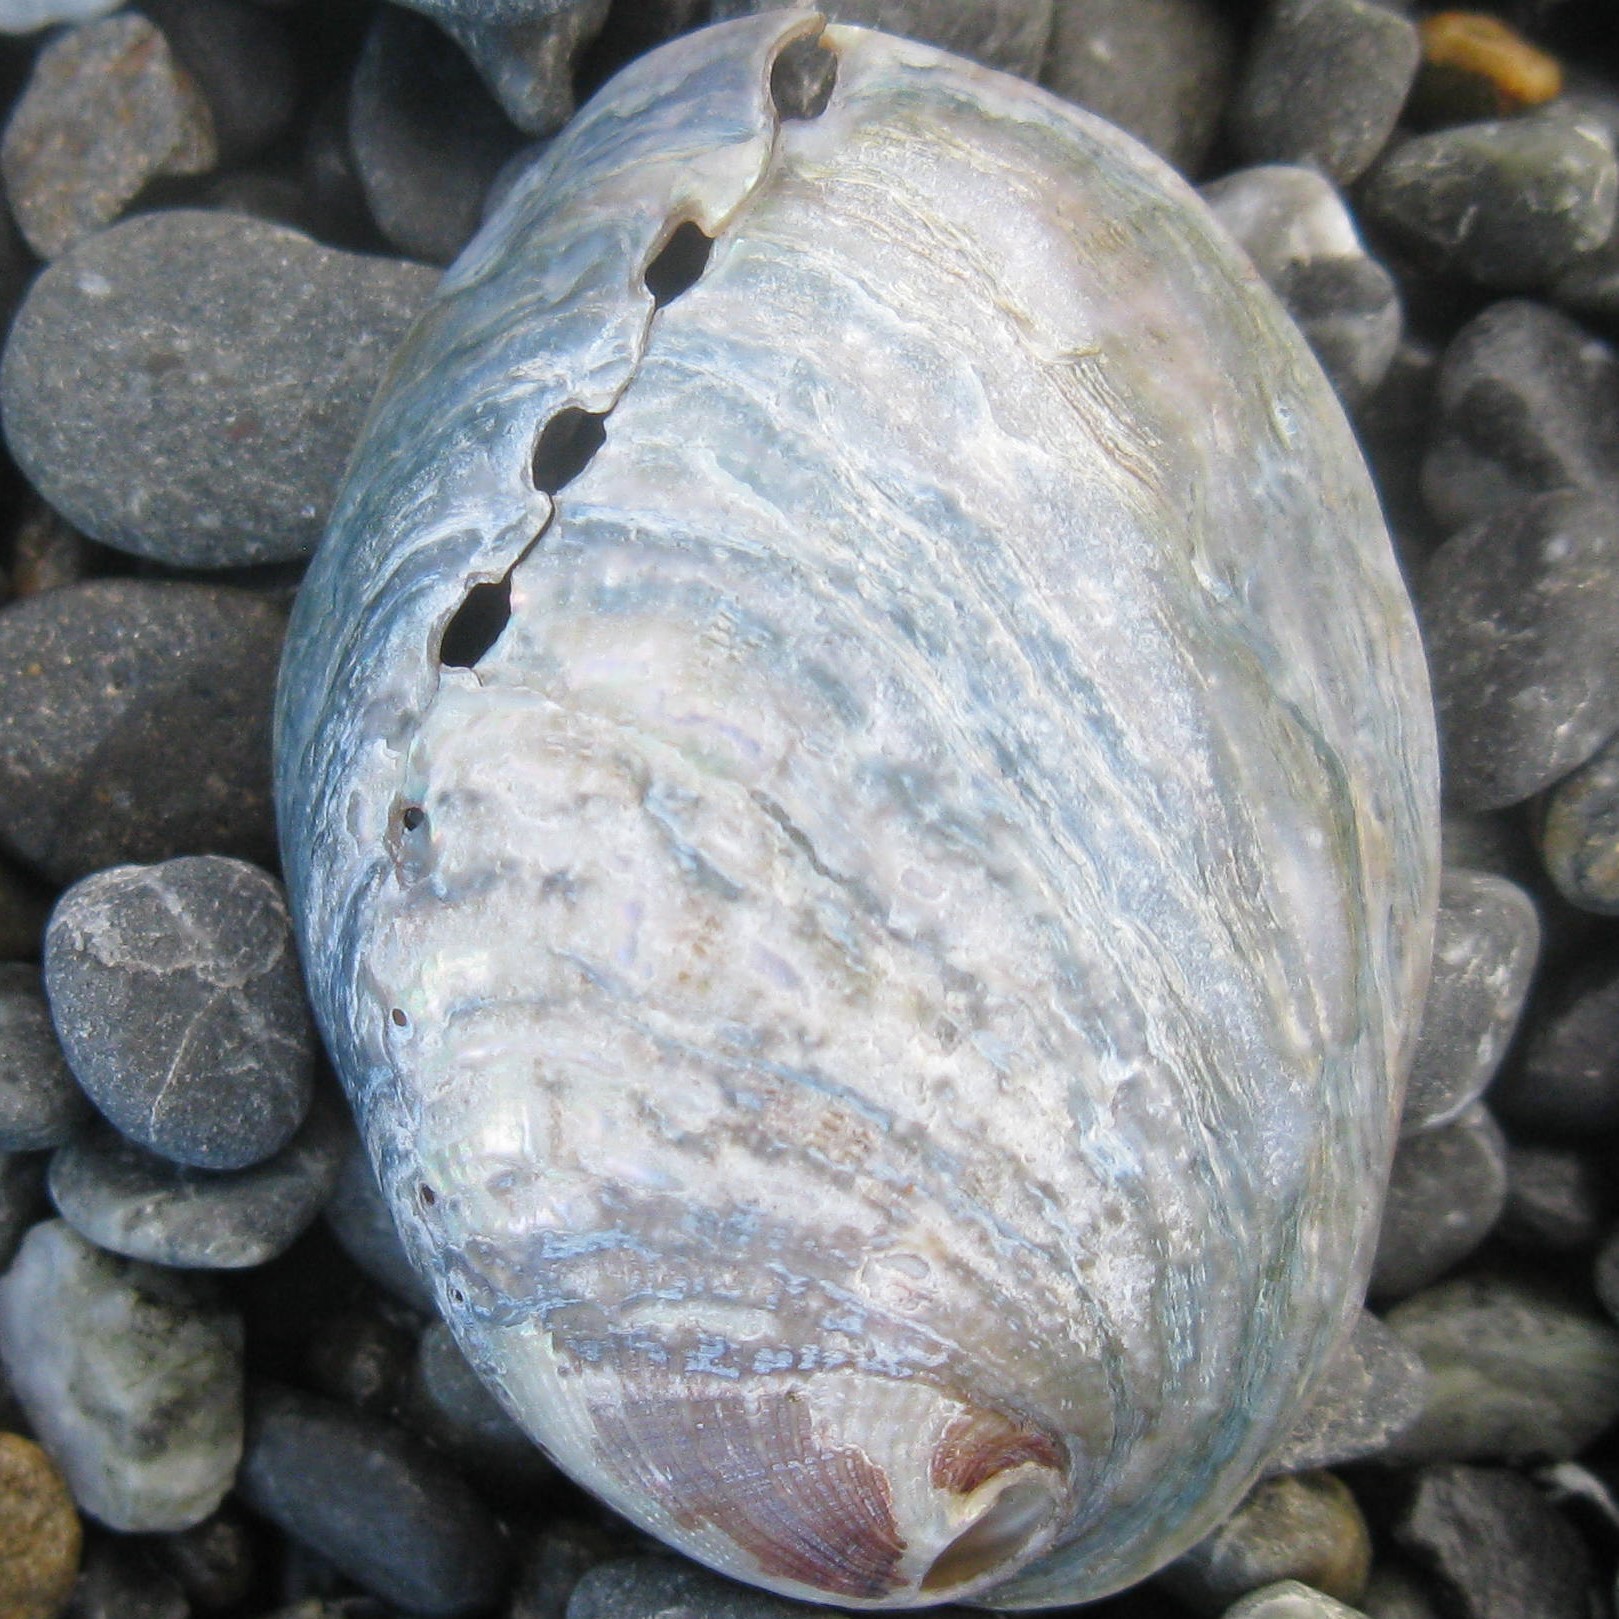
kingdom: Animalia
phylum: Mollusca
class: Gastropoda
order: Lepetellida
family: Haliotidae
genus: Haliotis
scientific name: Haliotis iris
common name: Abalone
